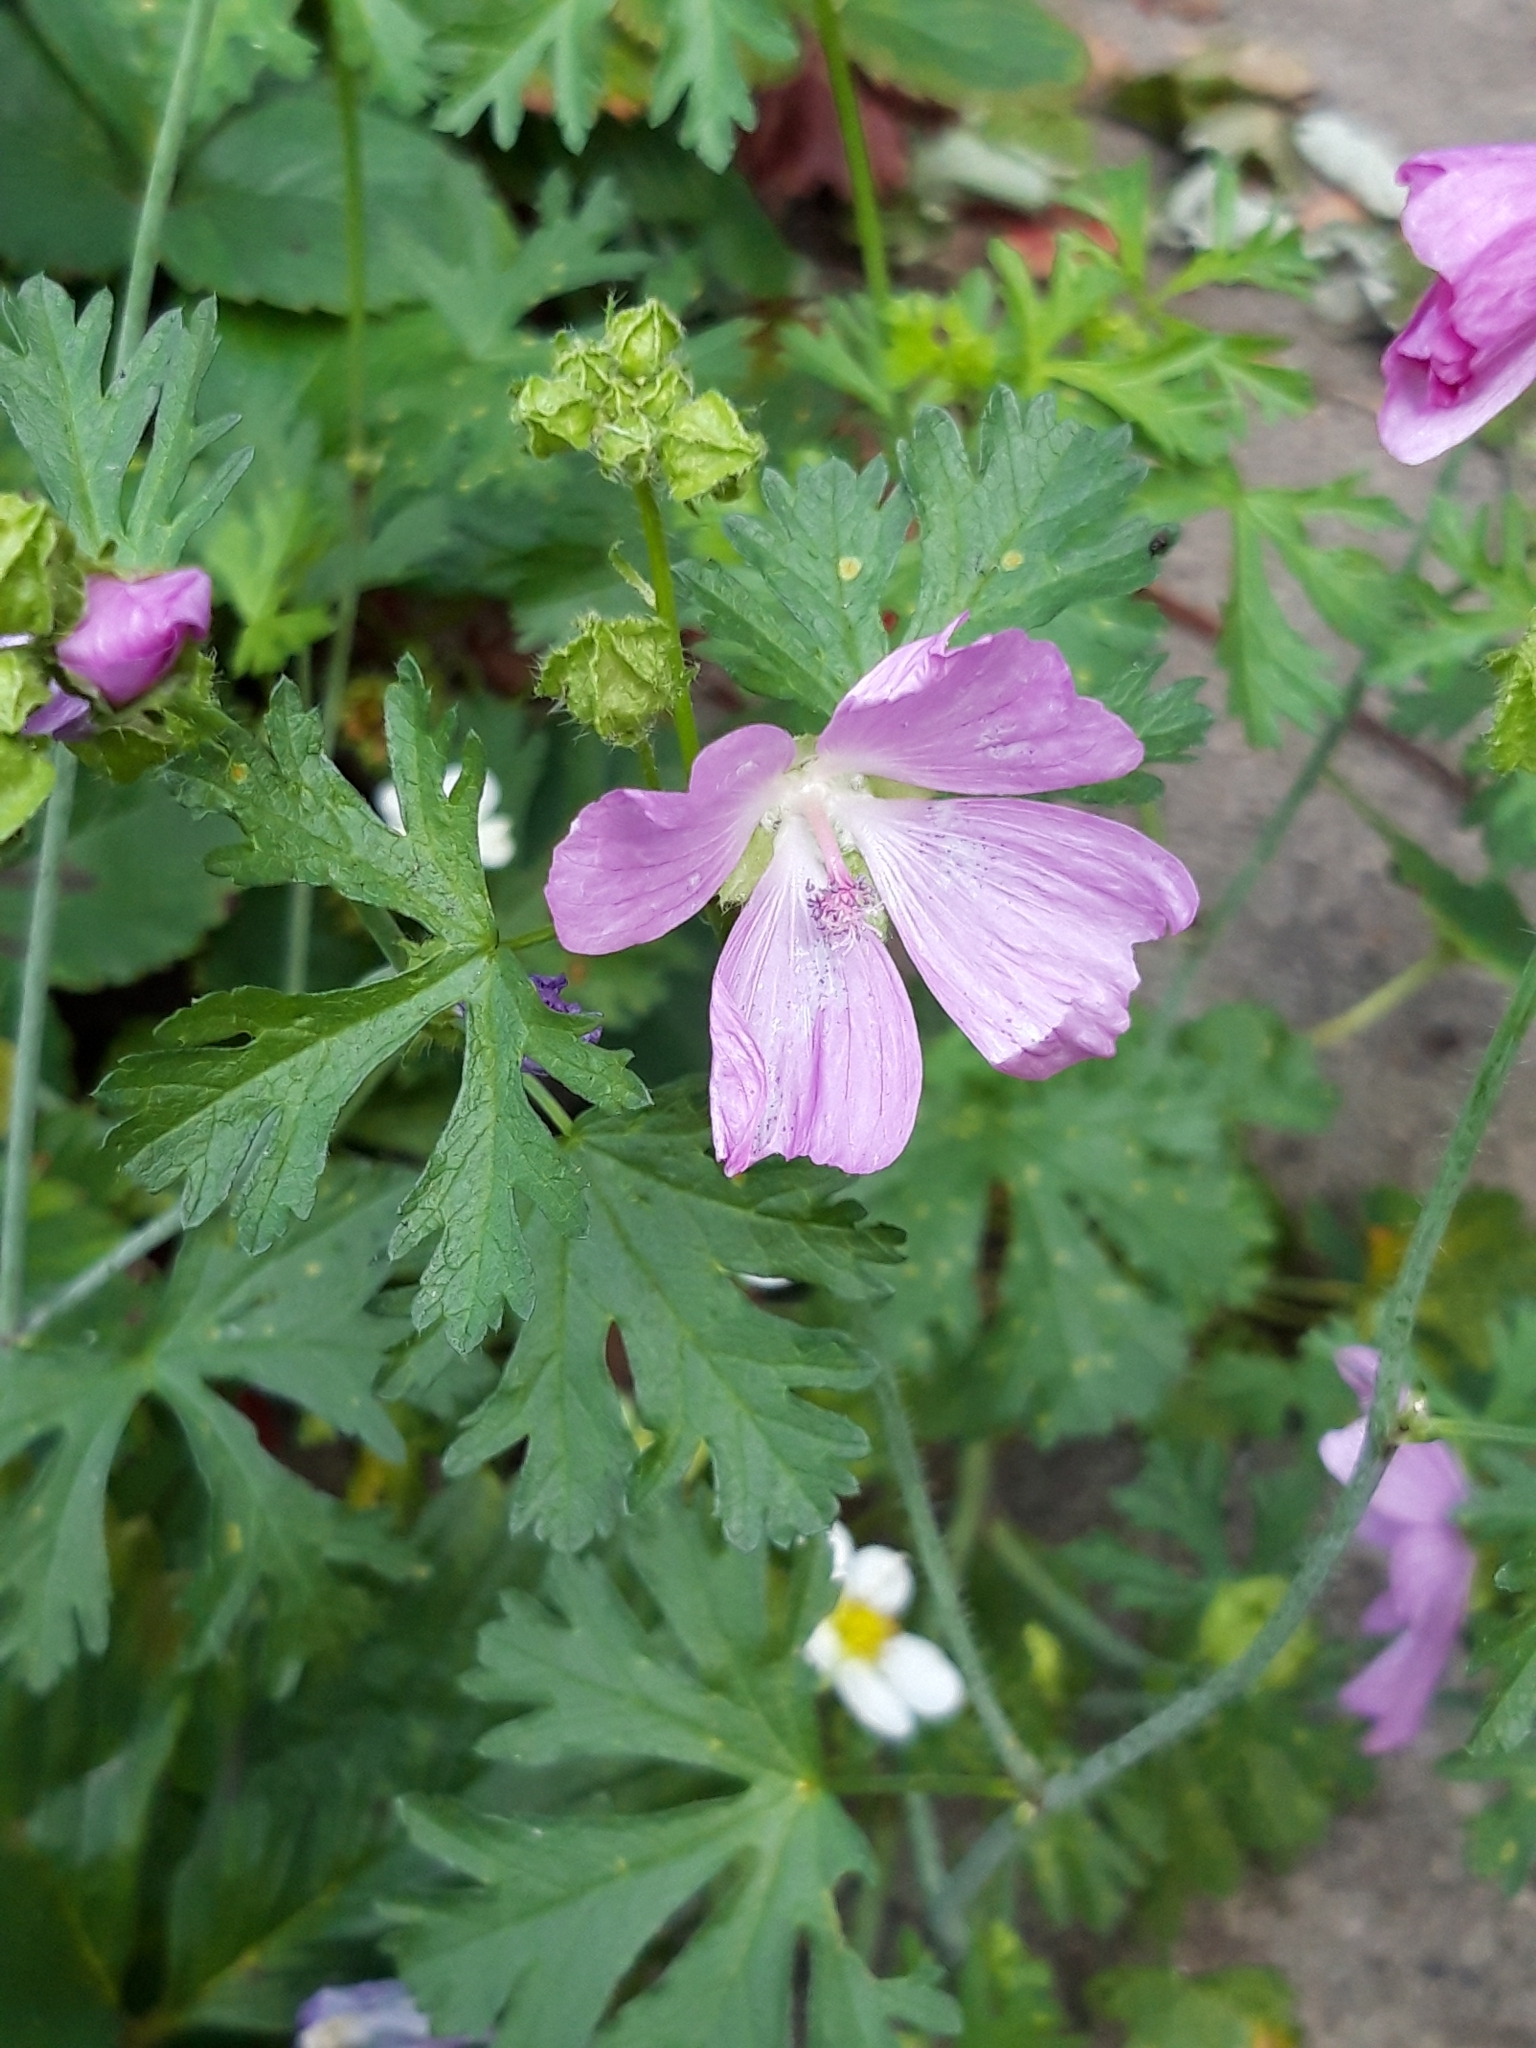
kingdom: Plantae
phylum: Tracheophyta
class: Magnoliopsida
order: Malvales
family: Malvaceae
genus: Malva
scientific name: Malva moschata
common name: Musk mallow
